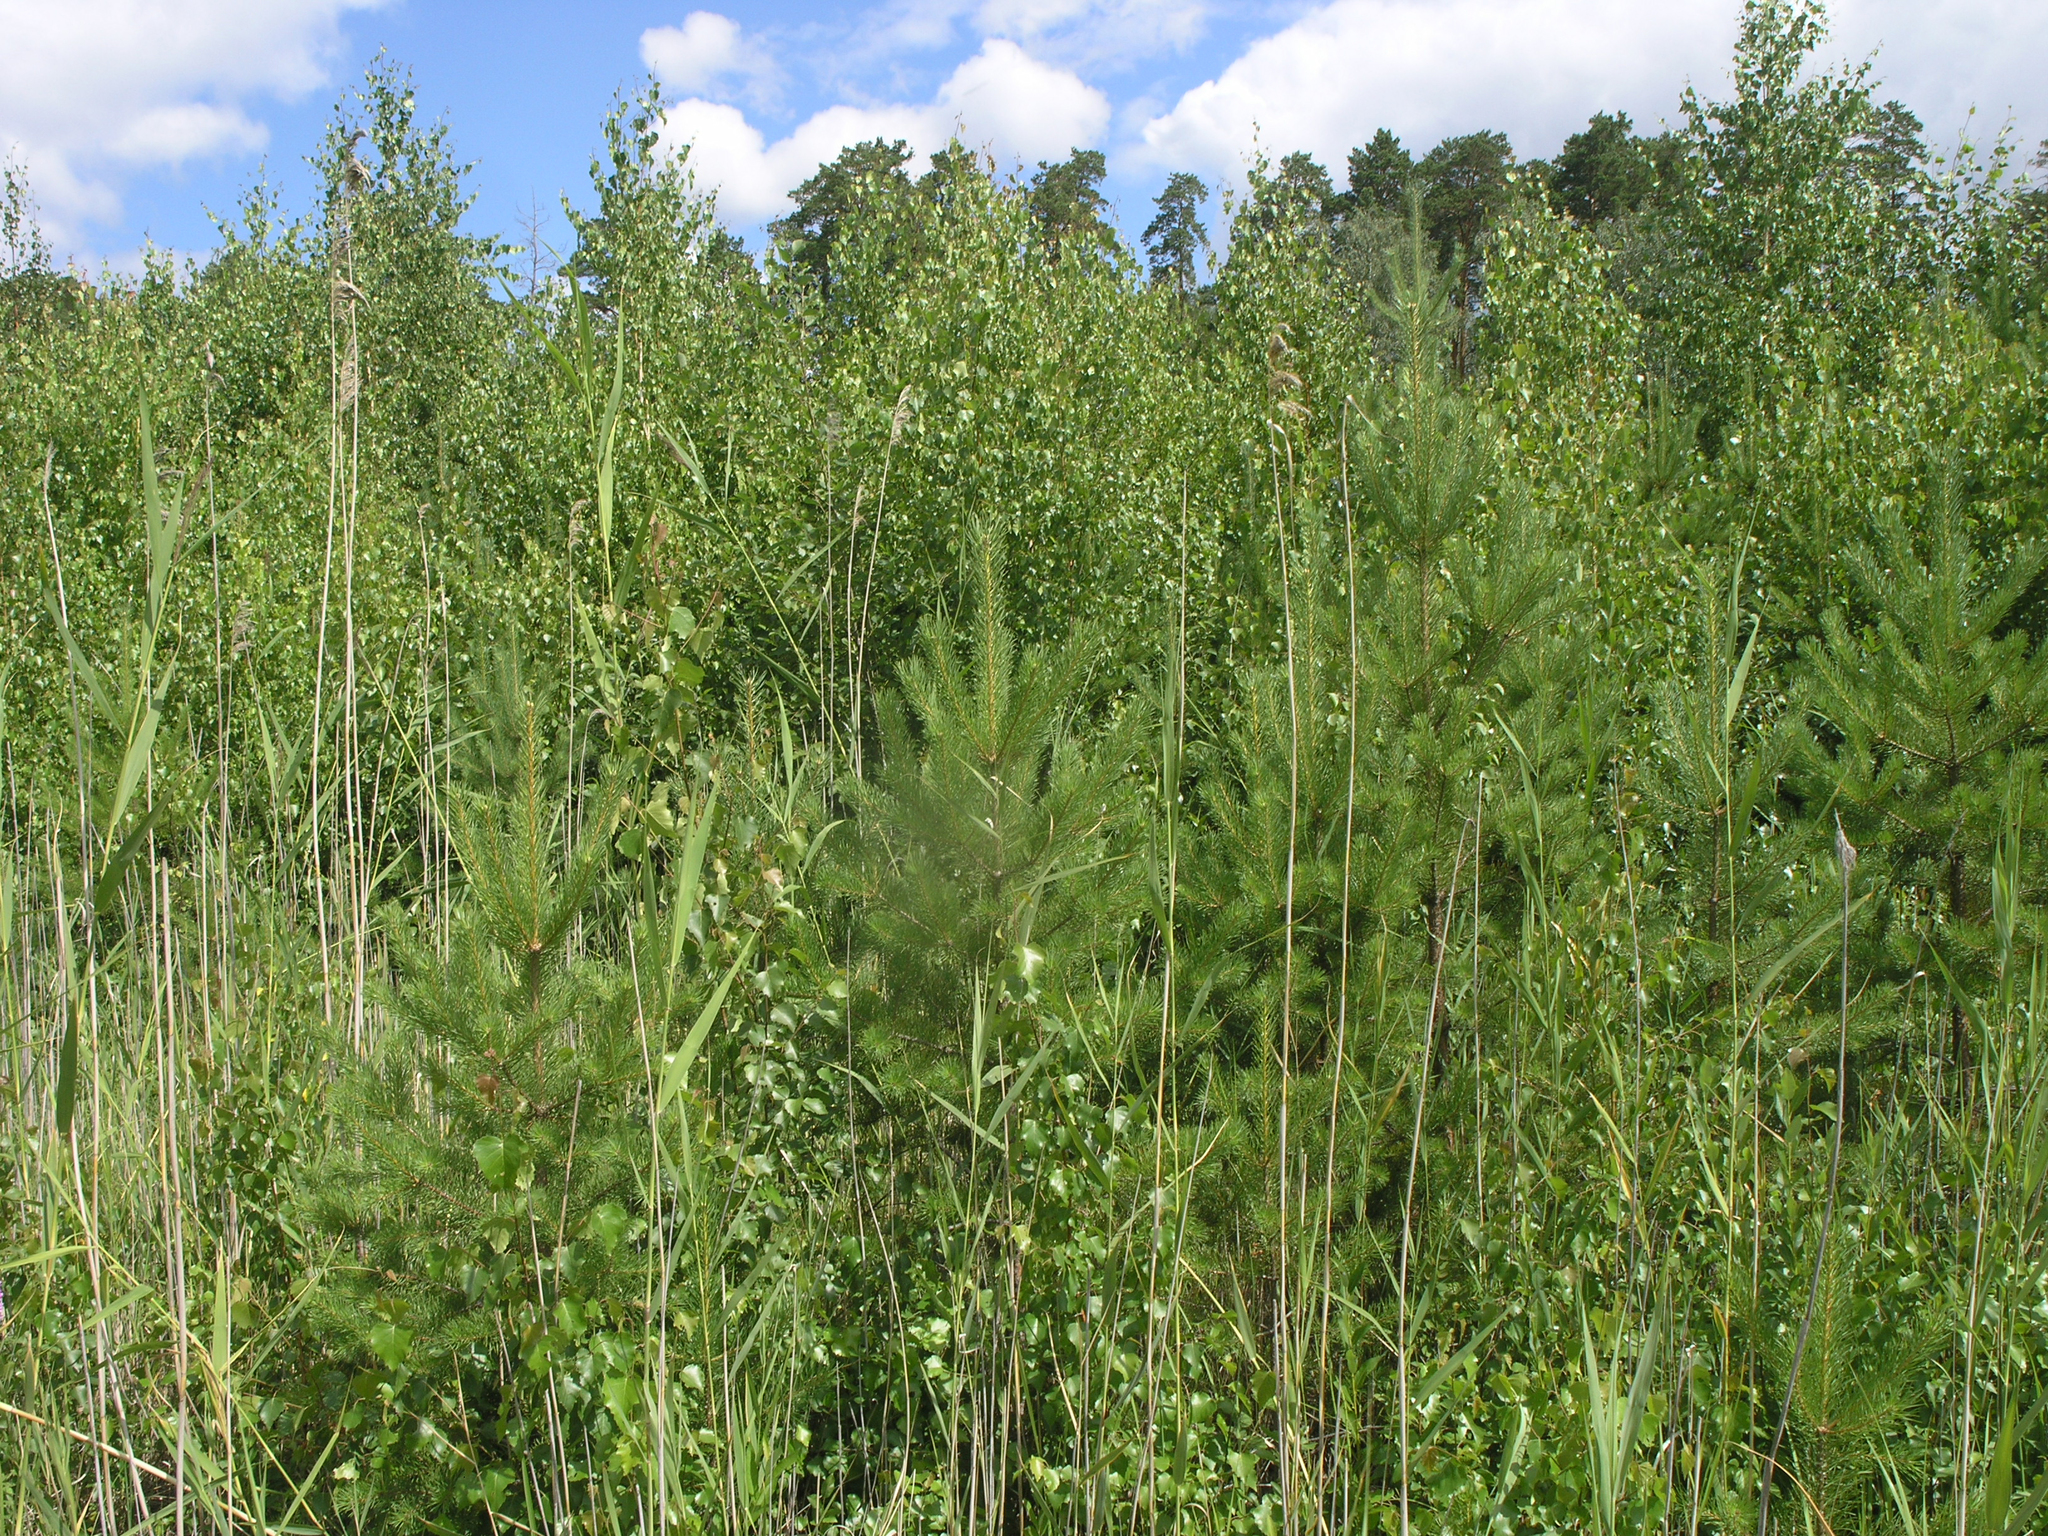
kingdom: Plantae
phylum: Tracheophyta
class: Magnoliopsida
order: Fagales
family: Betulaceae
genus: Betula
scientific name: Betula pubescens
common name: Downy birch
